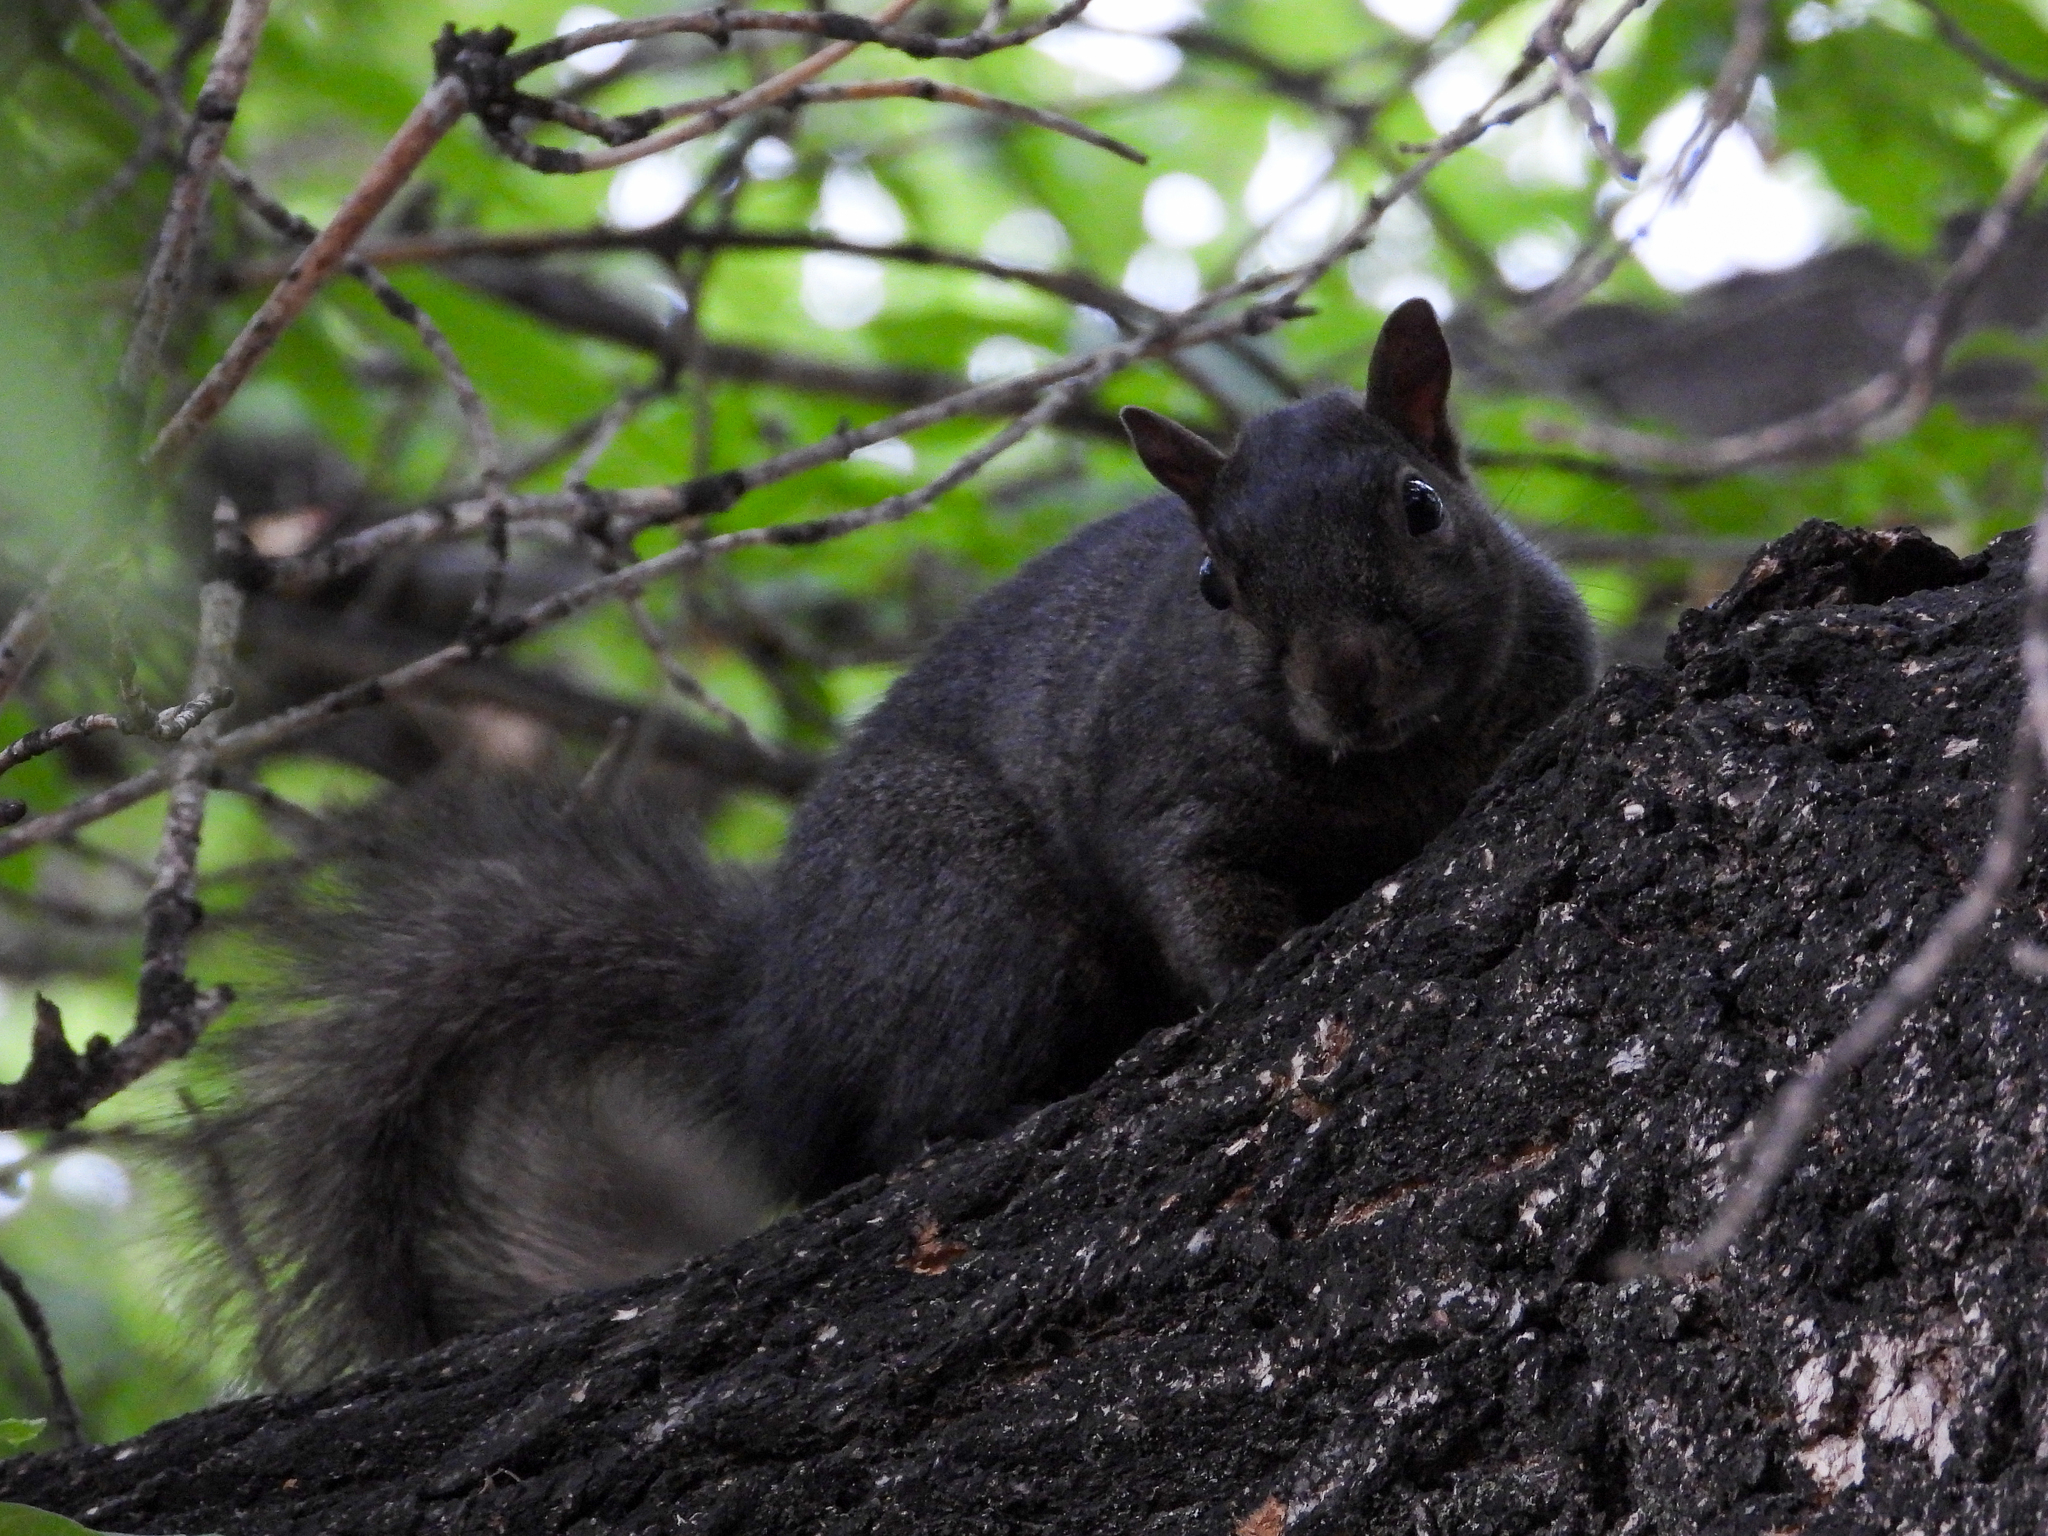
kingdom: Animalia
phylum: Chordata
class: Mammalia
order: Rodentia
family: Sciuridae
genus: Sciurus
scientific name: Sciurus carolinensis
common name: Eastern gray squirrel
